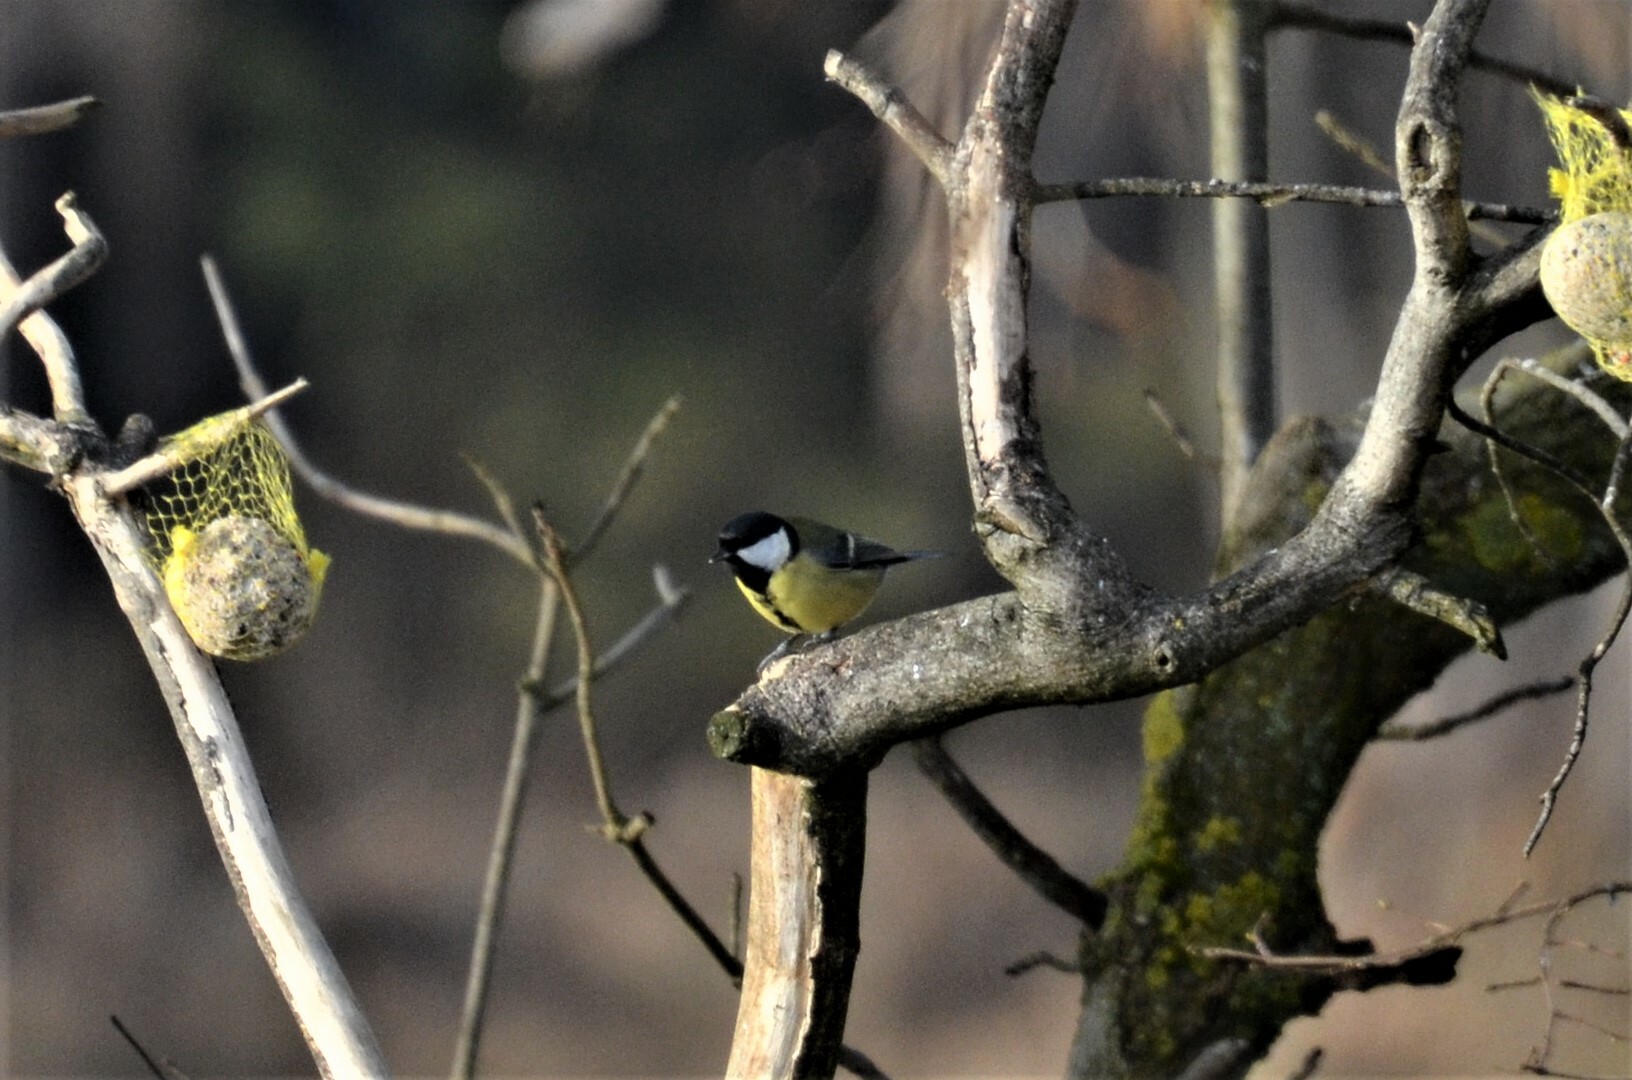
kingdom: Animalia
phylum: Chordata
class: Aves
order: Passeriformes
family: Paridae
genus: Parus
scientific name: Parus major
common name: Great tit
